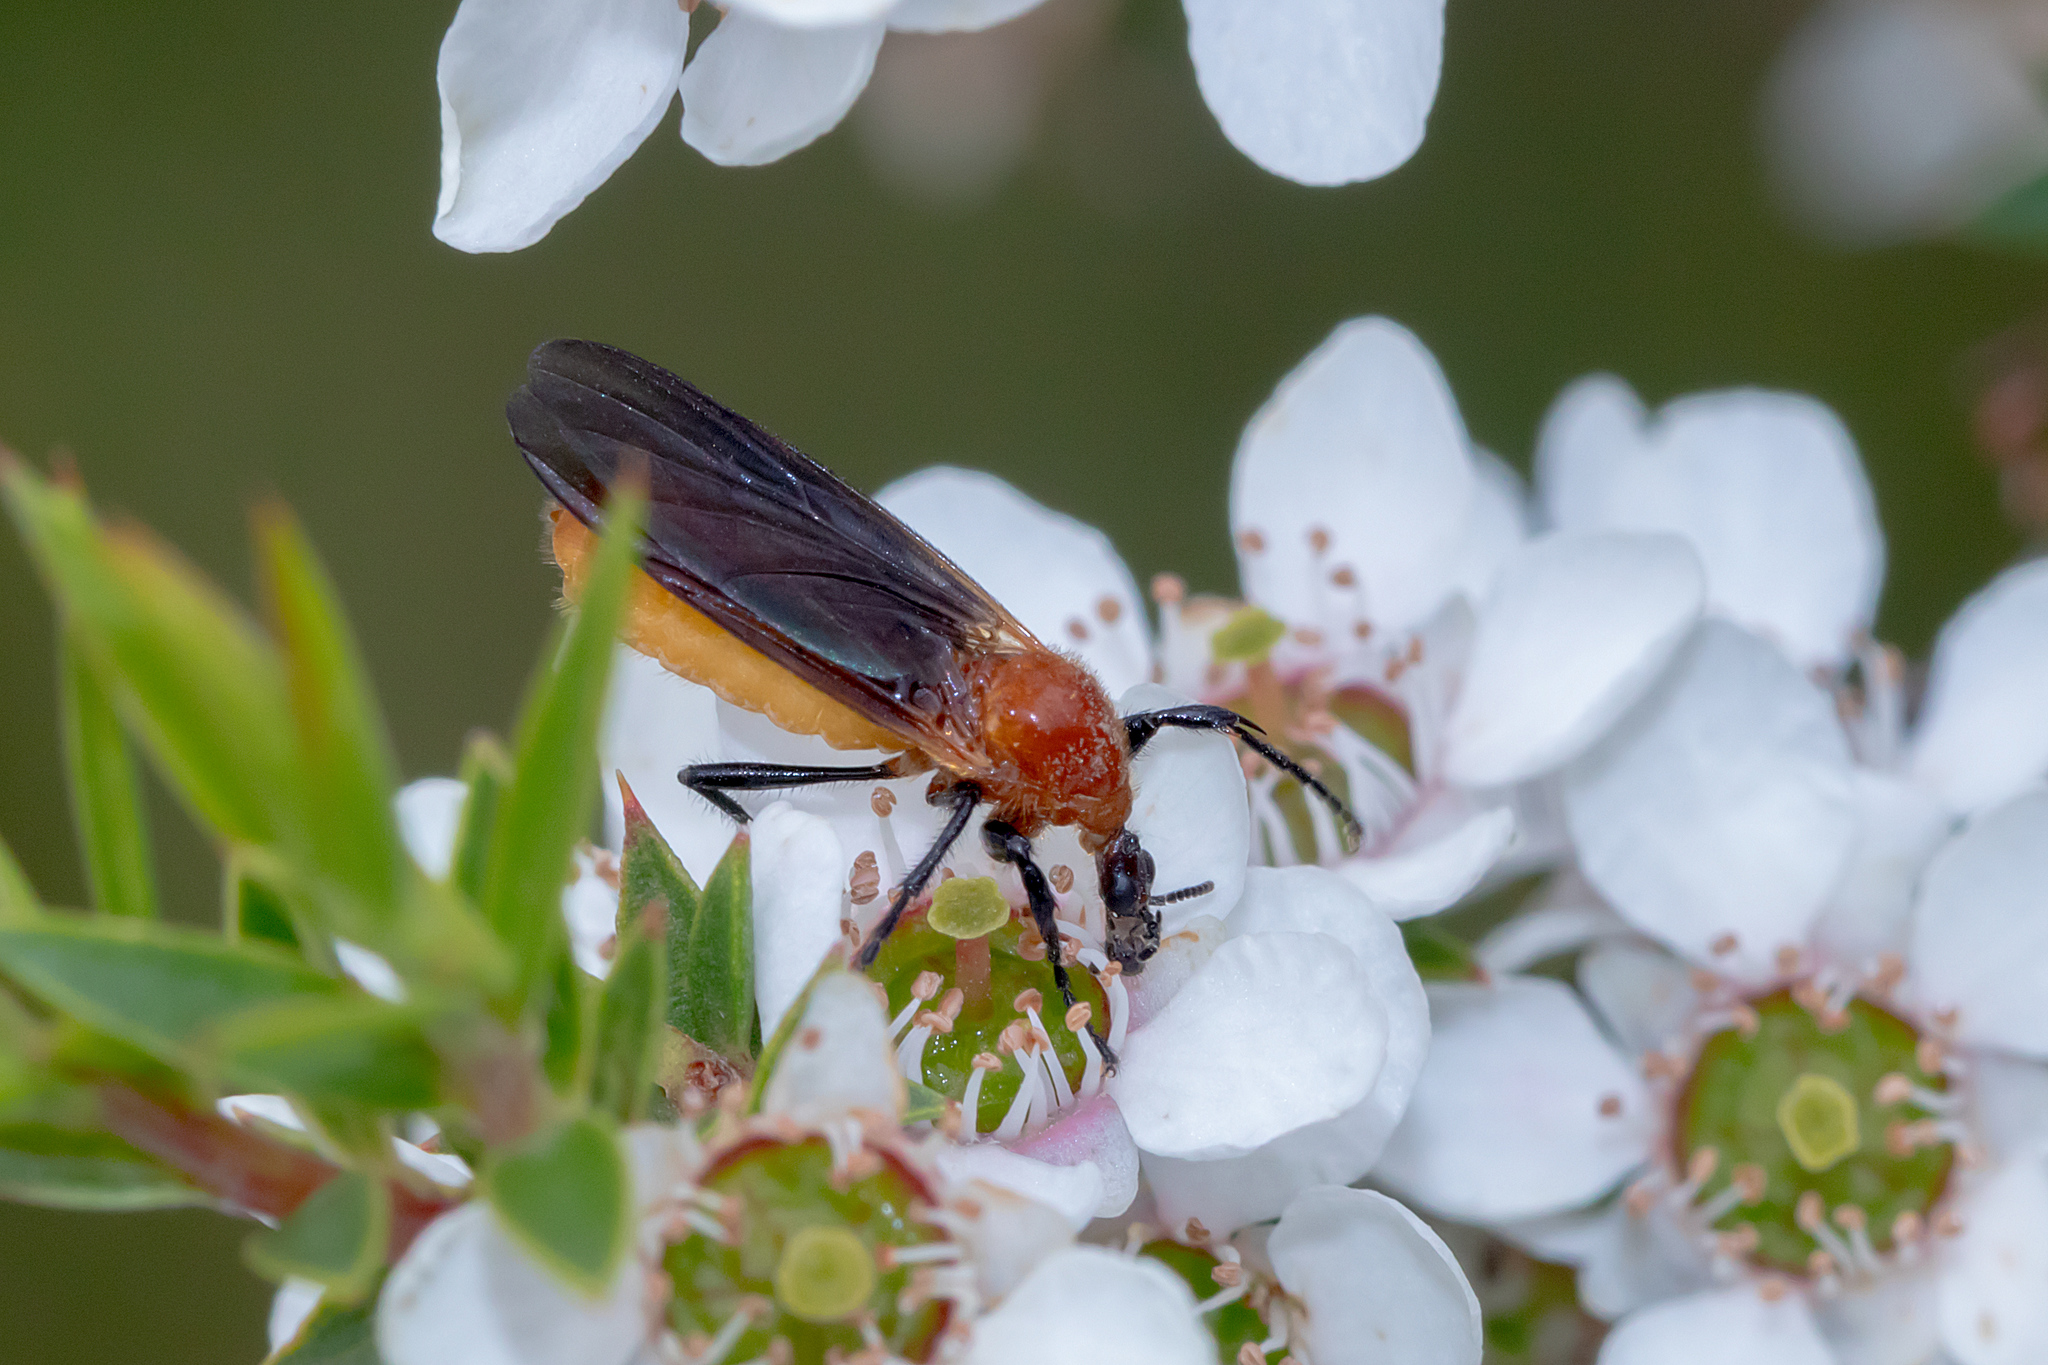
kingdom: Animalia
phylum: Arthropoda
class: Insecta
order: Diptera
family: Bibionidae
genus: Bibio
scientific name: Bibio imitator
